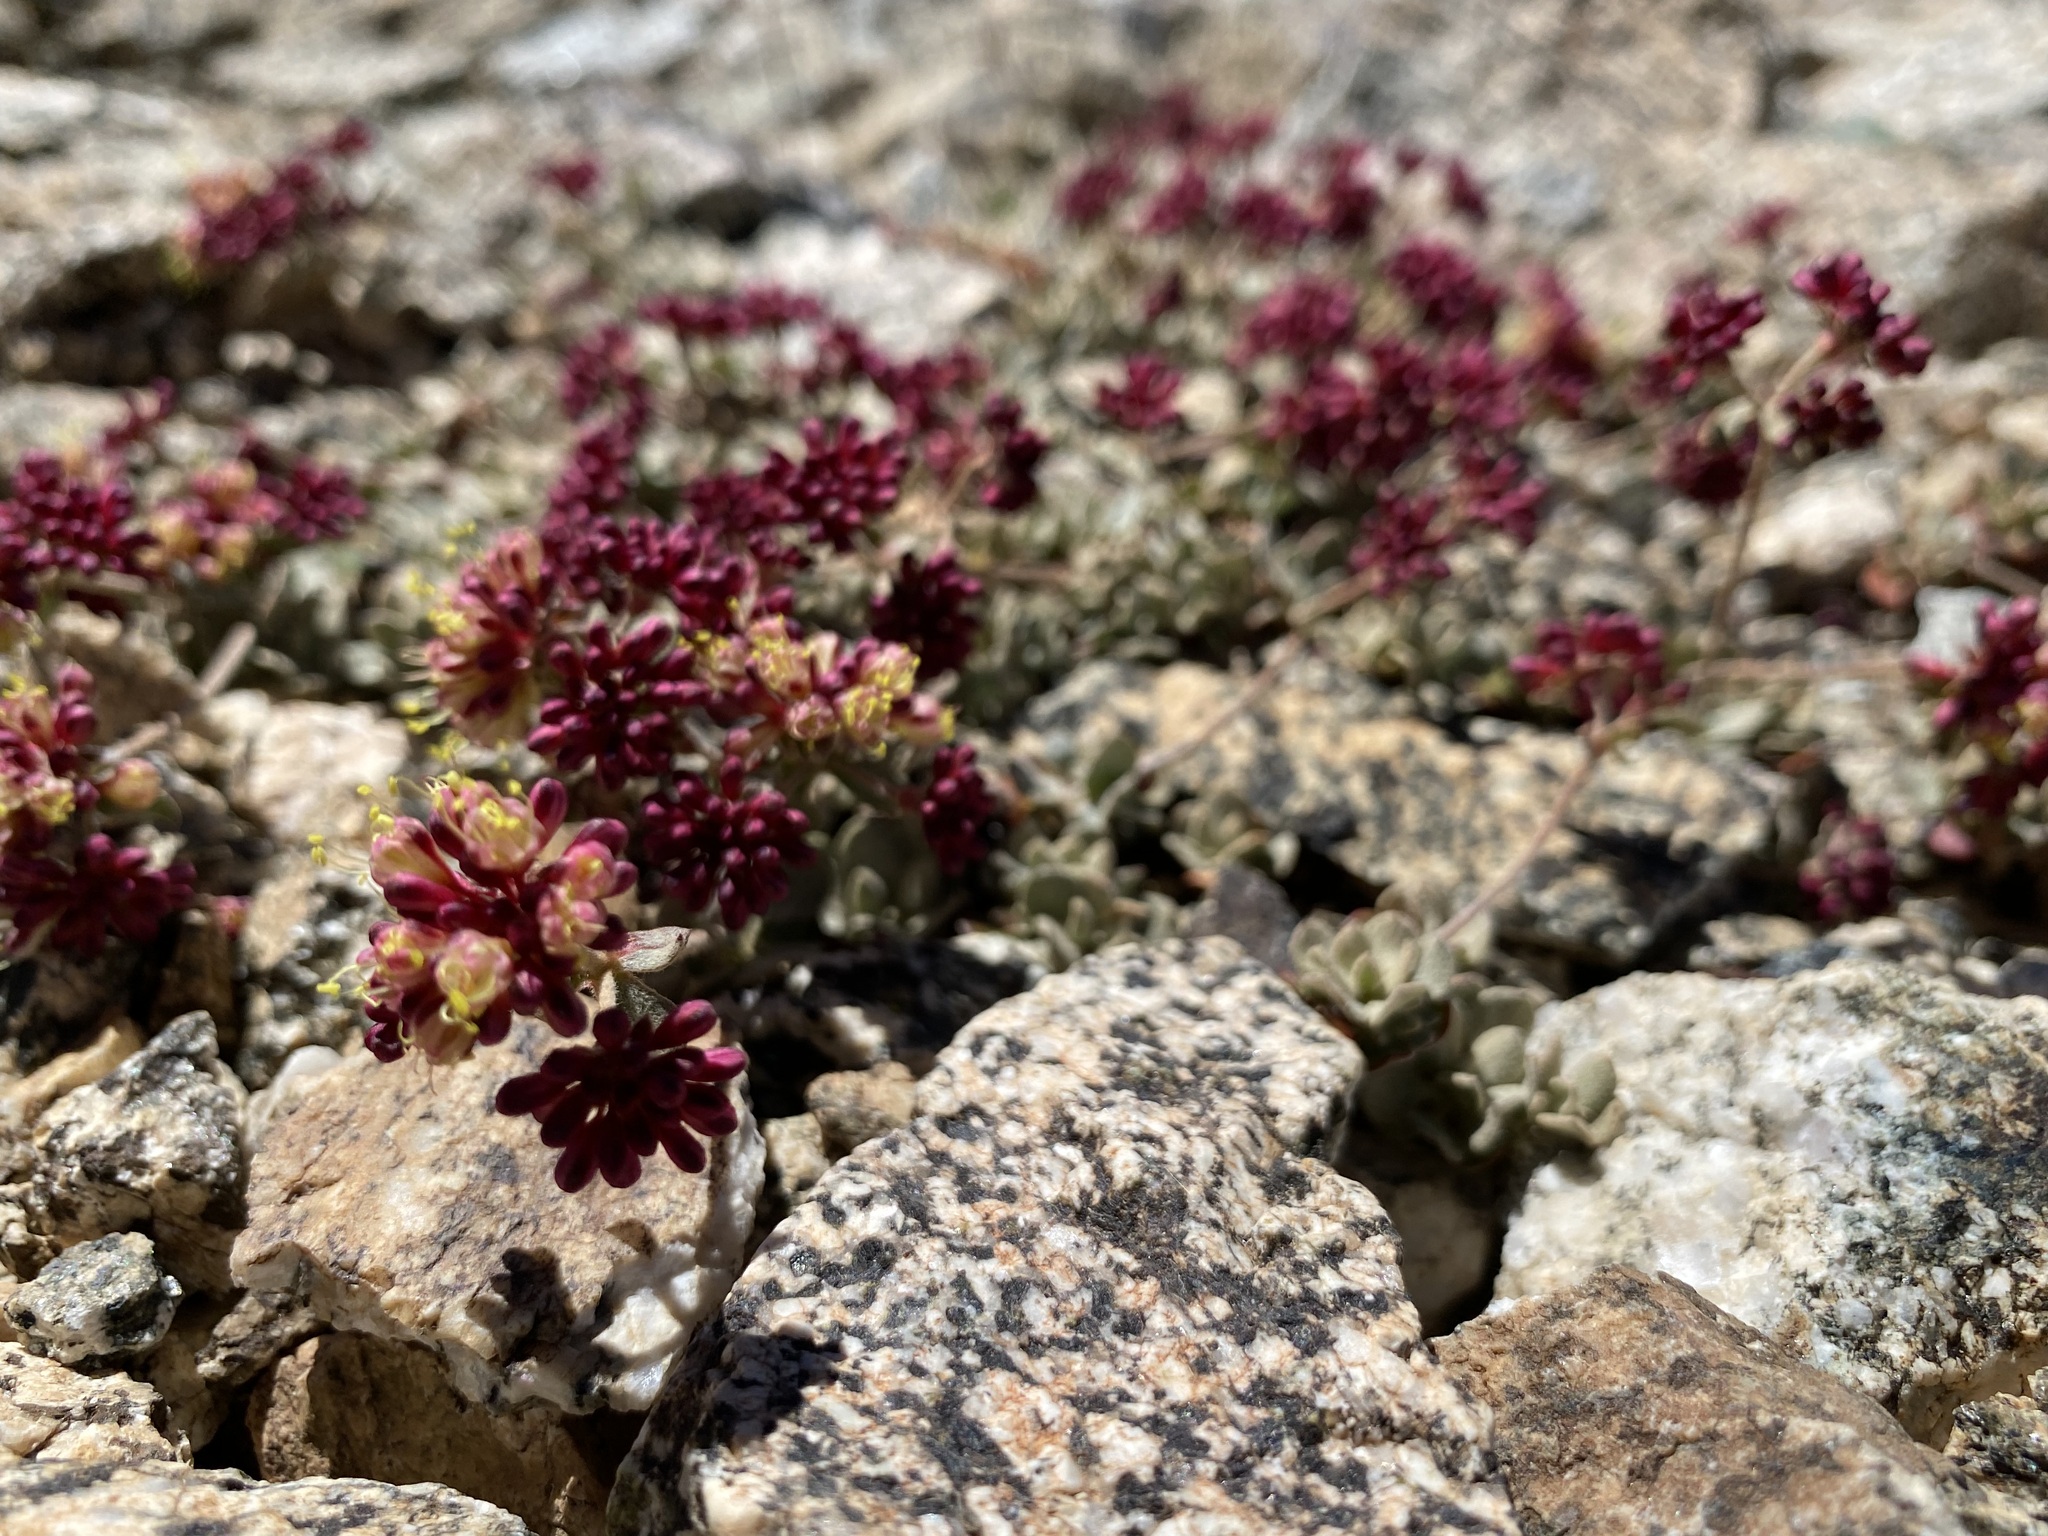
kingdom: Plantae
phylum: Tracheophyta
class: Magnoliopsida
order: Caryophyllales
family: Polygonaceae
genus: Eriogonum
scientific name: Eriogonum umbellatum
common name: Sulfur-buckwheat
